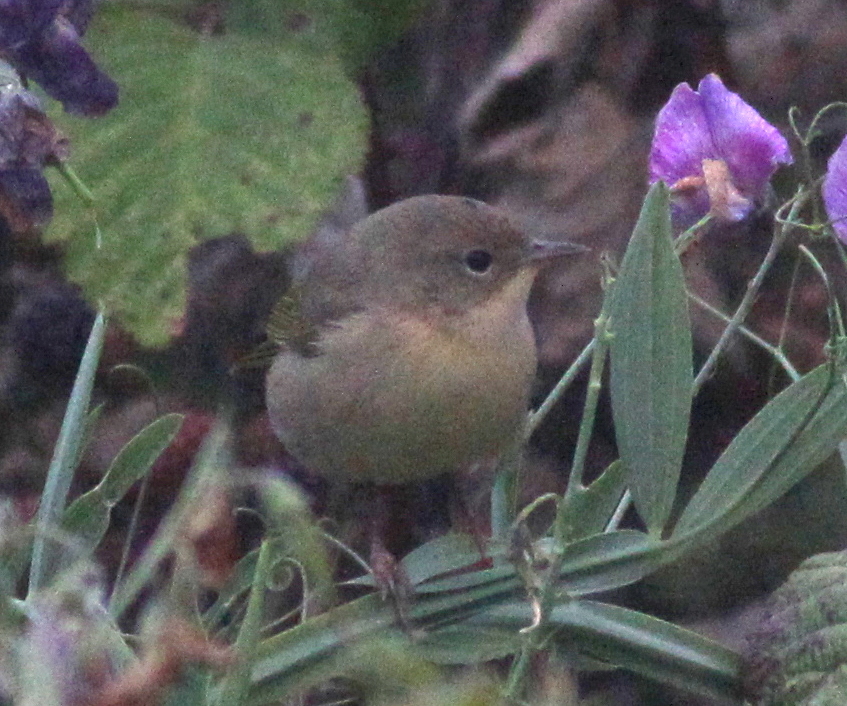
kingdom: Animalia
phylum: Chordata
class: Aves
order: Passeriformes
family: Parulidae
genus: Geothlypis
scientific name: Geothlypis trichas
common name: Common yellowthroat
